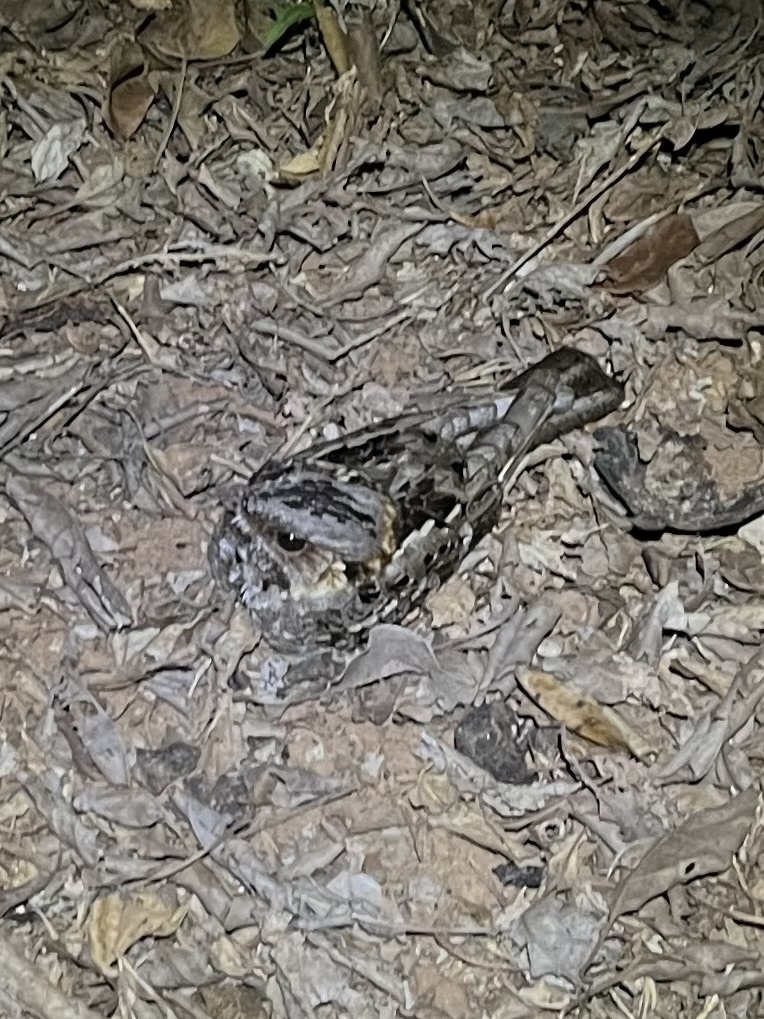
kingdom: Animalia
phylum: Chordata
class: Aves
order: Caprimulgiformes
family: Caprimulgidae
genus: Caprimulgus
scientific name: Caprimulgus pectoralis
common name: Fiery-necked nightjar
